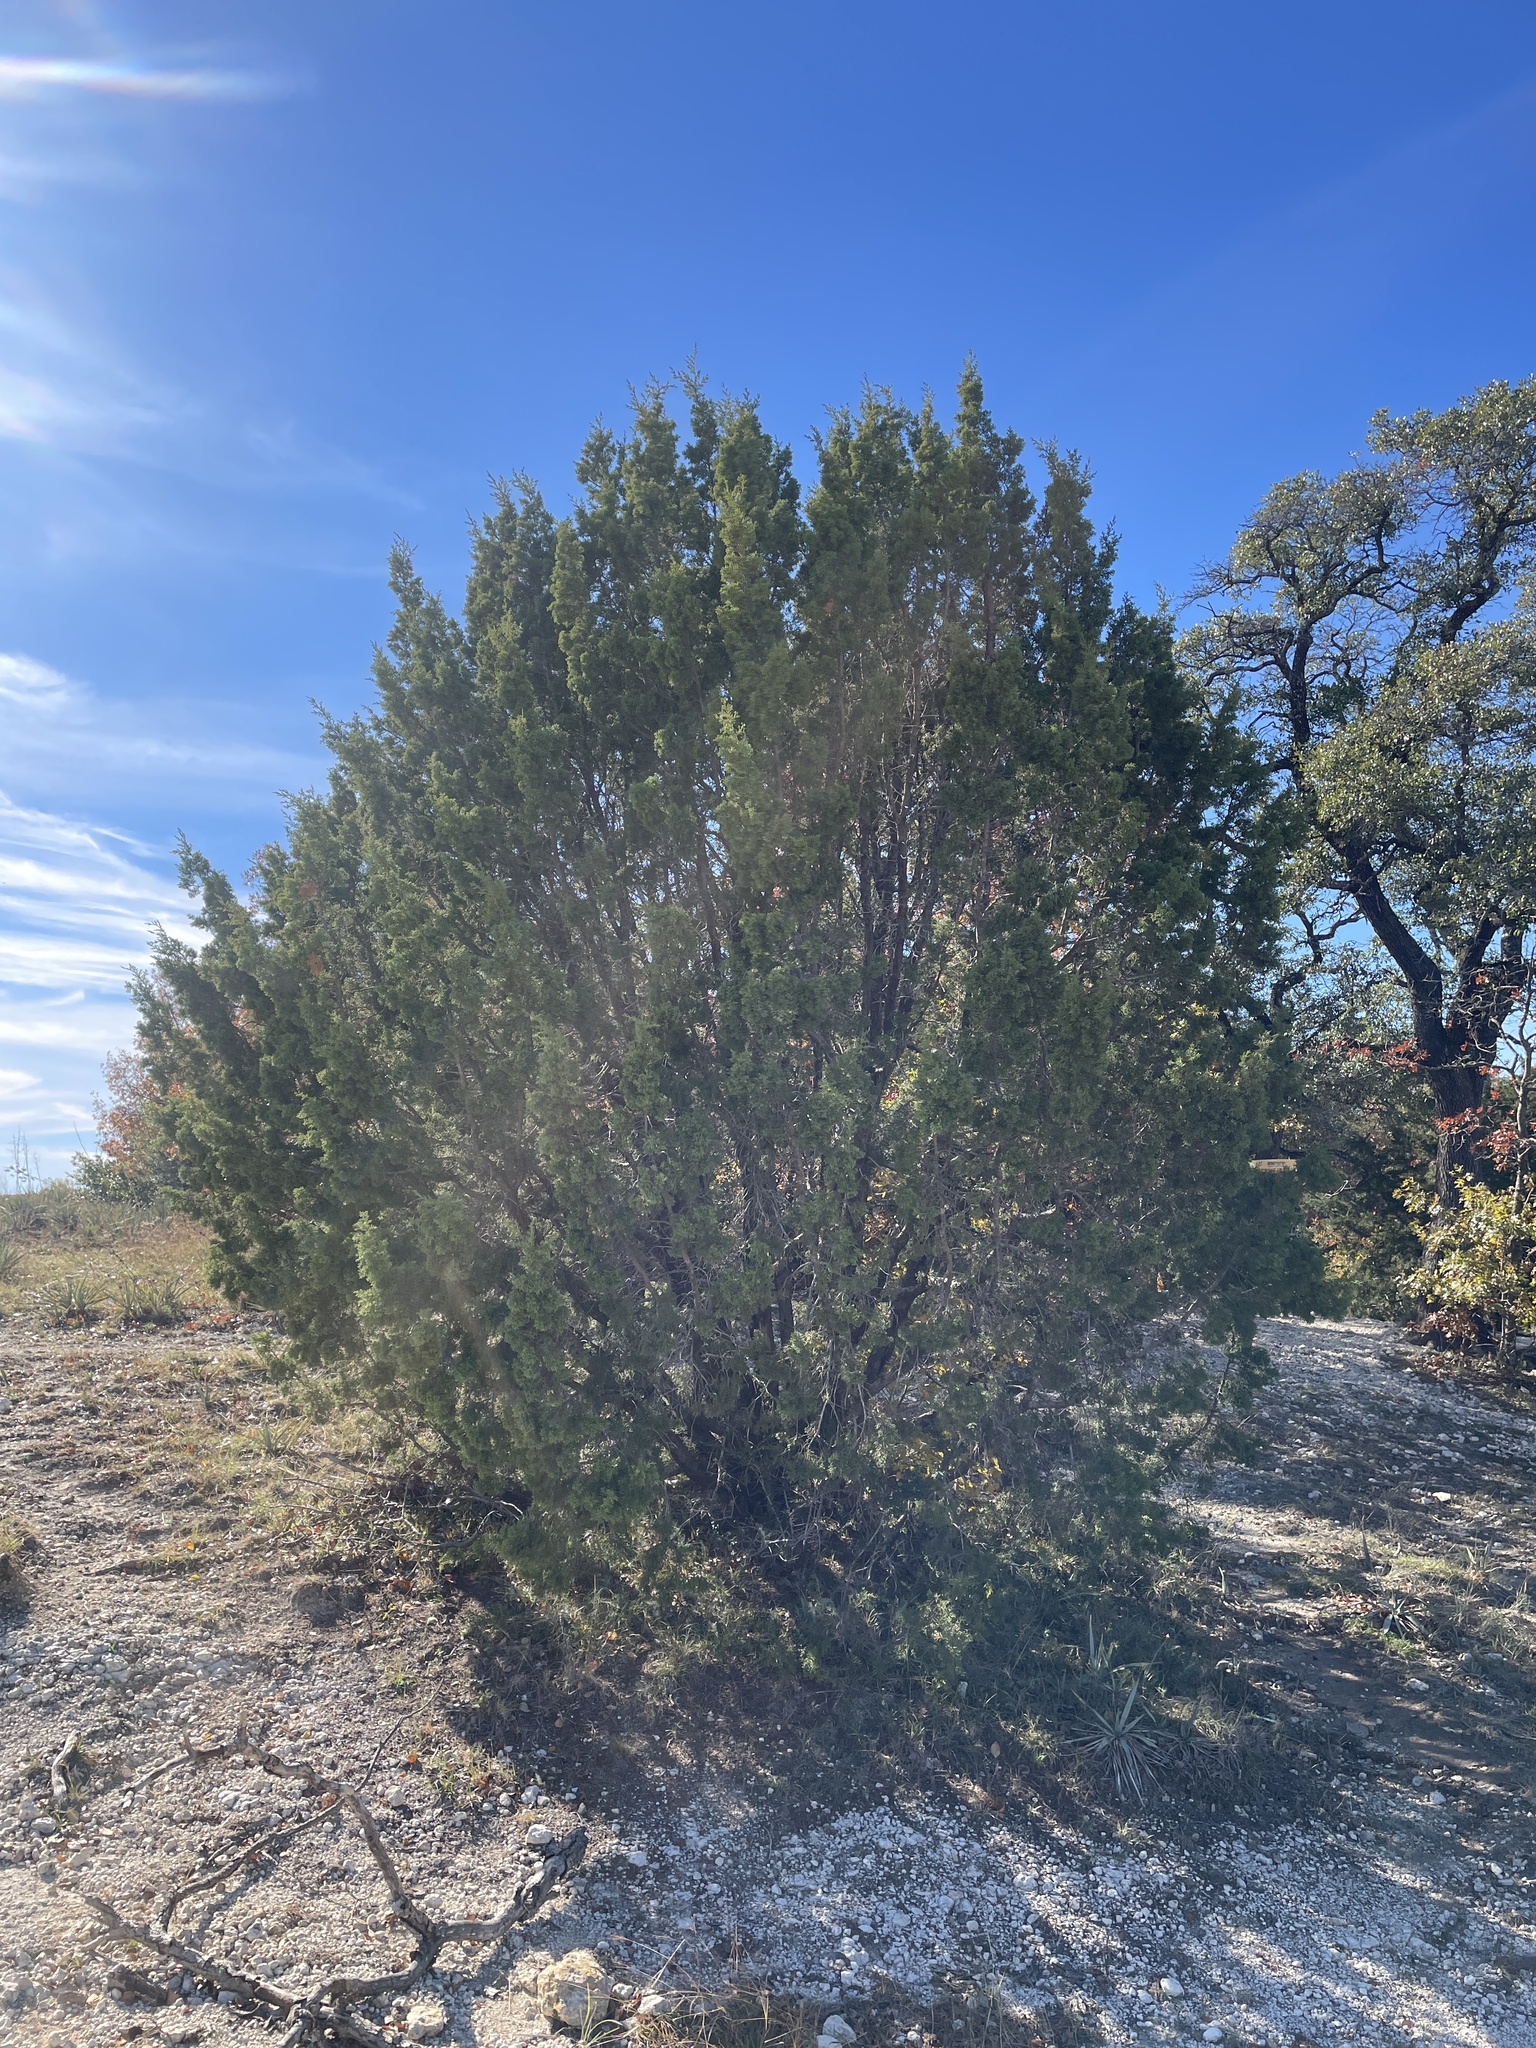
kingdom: Plantae
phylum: Tracheophyta
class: Pinopsida
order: Pinales
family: Cupressaceae
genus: Juniperus
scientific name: Juniperus pinchotii
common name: Pinchot juniper
